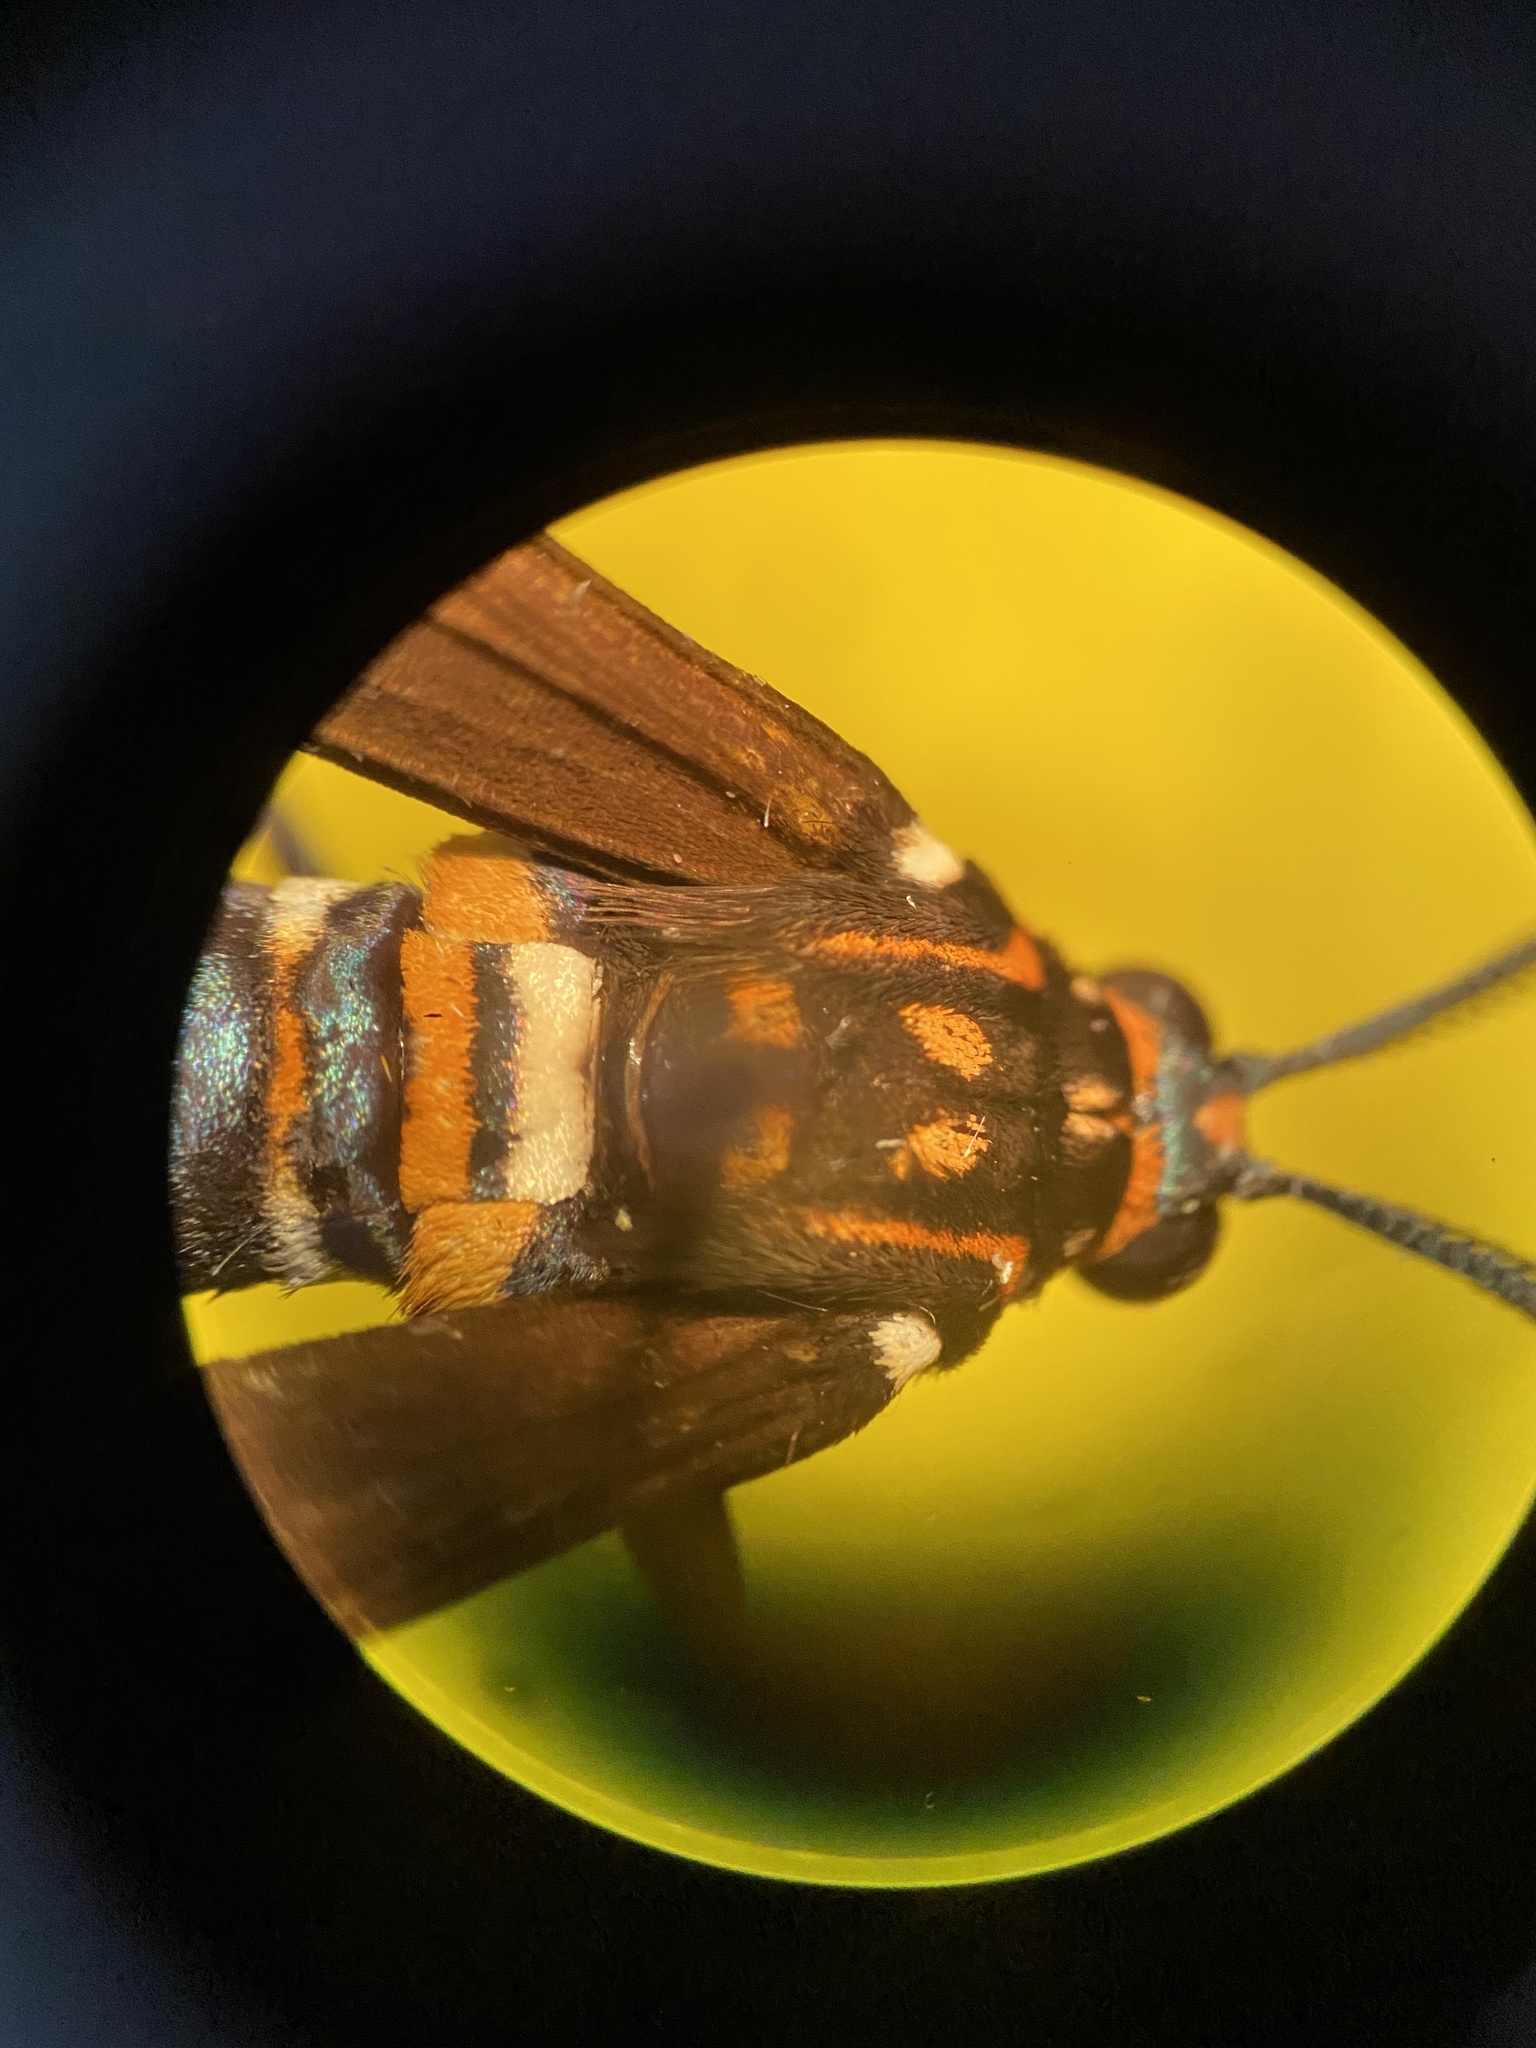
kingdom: Animalia
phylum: Arthropoda
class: Insecta
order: Lepidoptera
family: Erebidae
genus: Horama
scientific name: Horama panthalon
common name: Texas wasp moth
